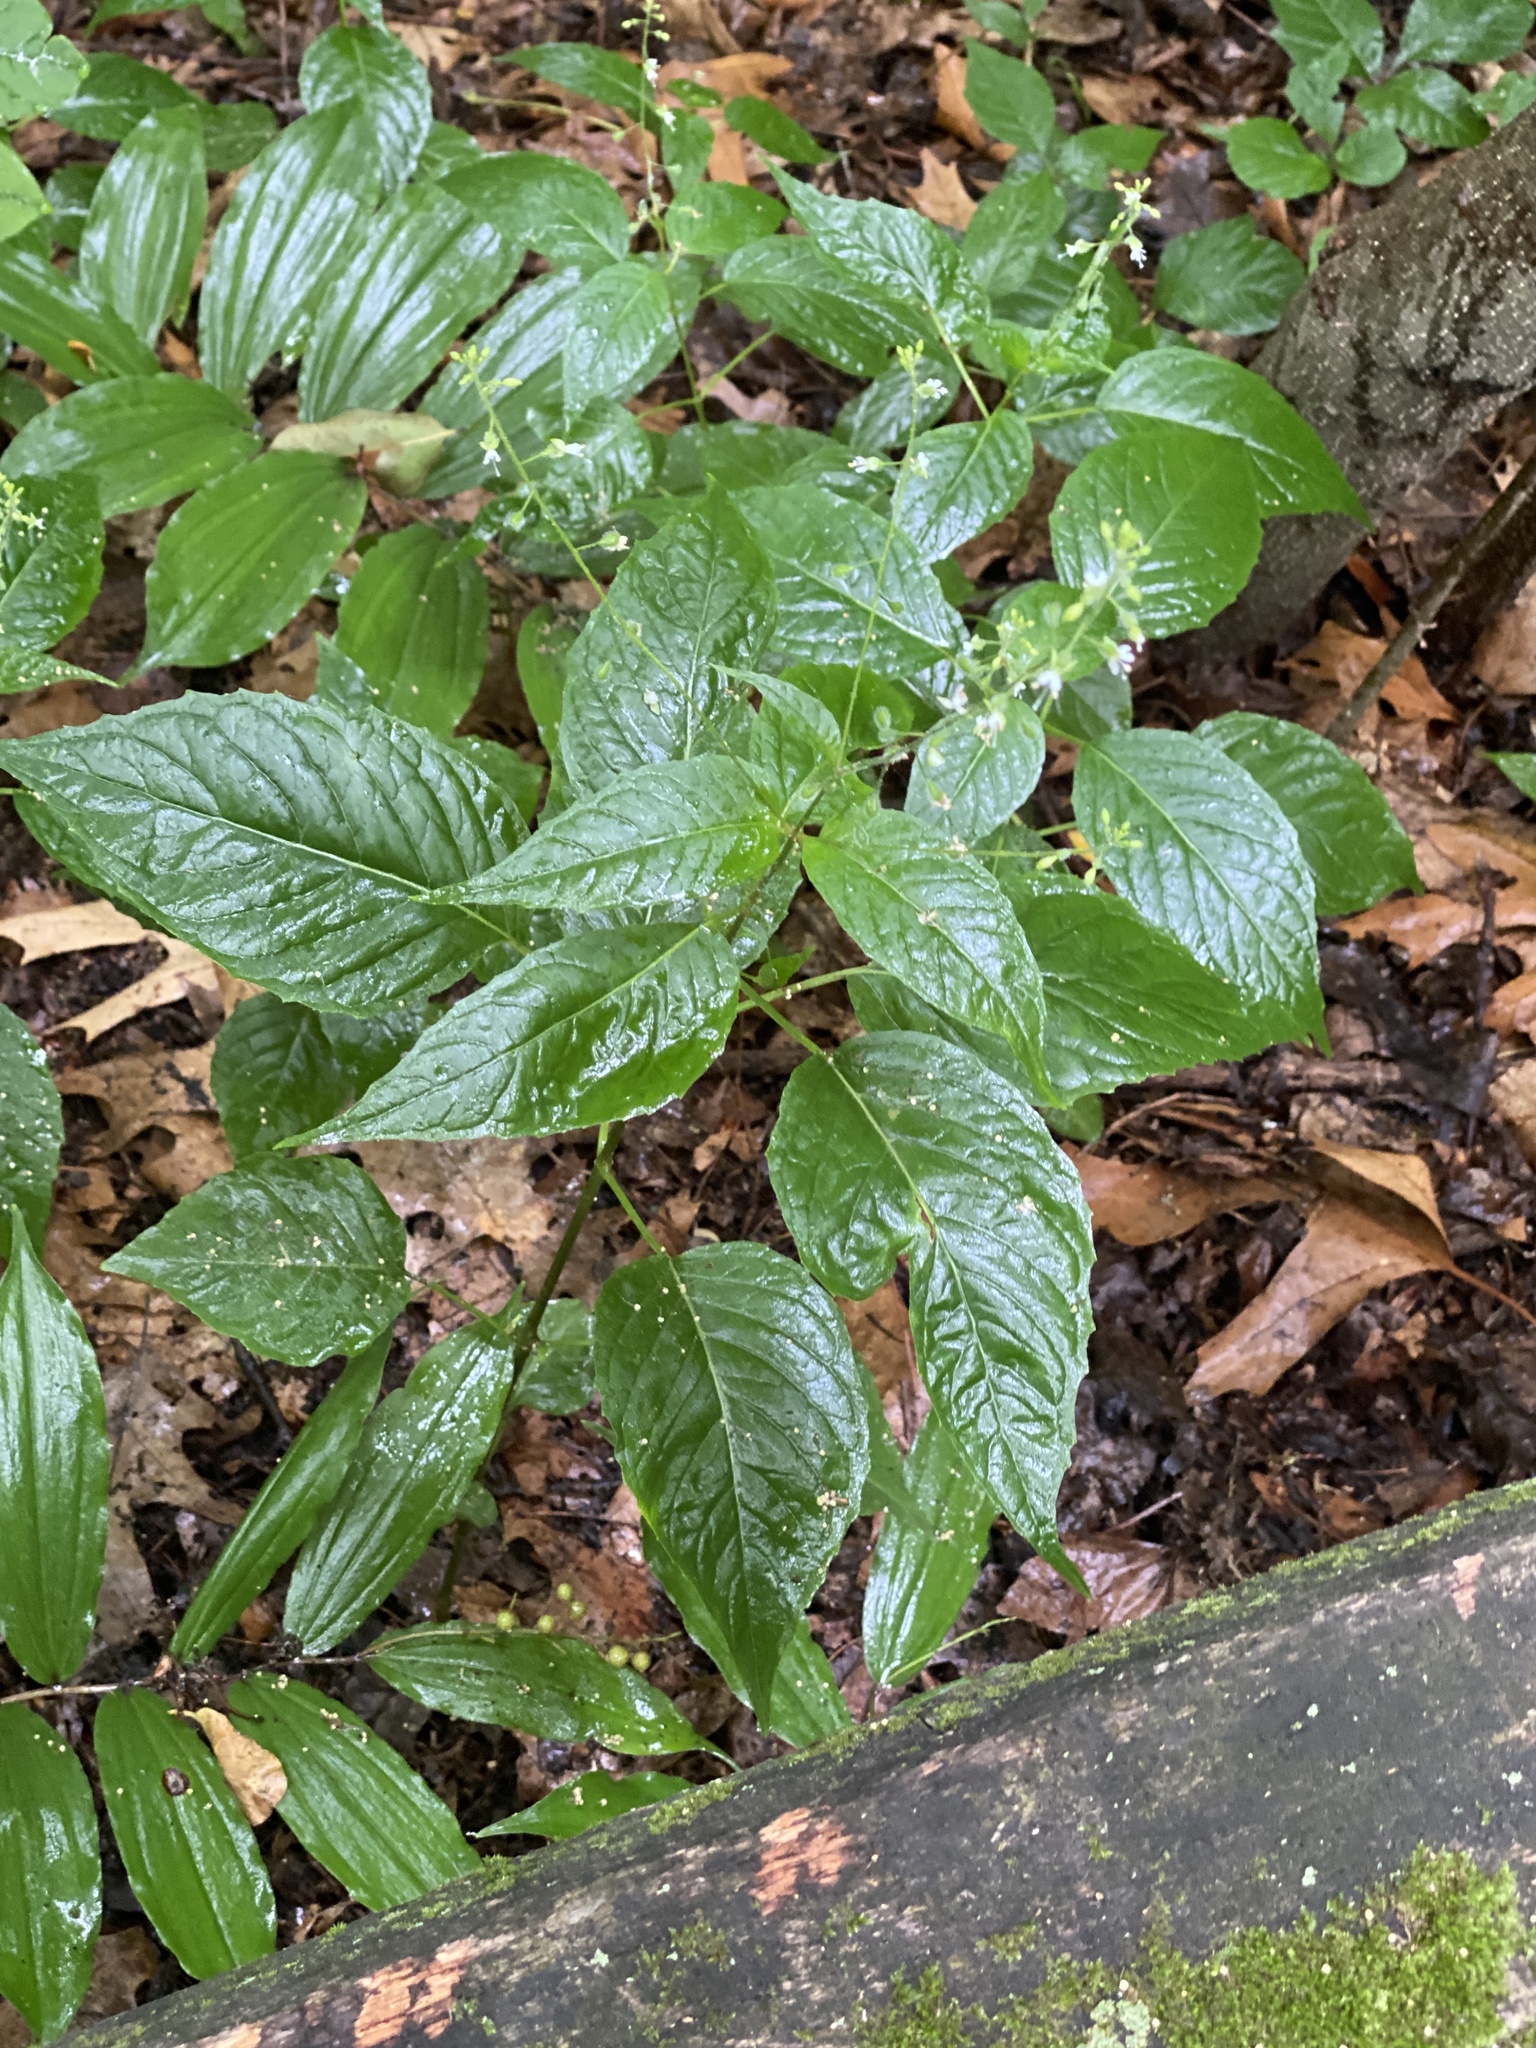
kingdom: Plantae
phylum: Tracheophyta
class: Magnoliopsida
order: Myrtales
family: Onagraceae
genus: Circaea
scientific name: Circaea canadensis
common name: Broad-leaved enchanter's nightshade
